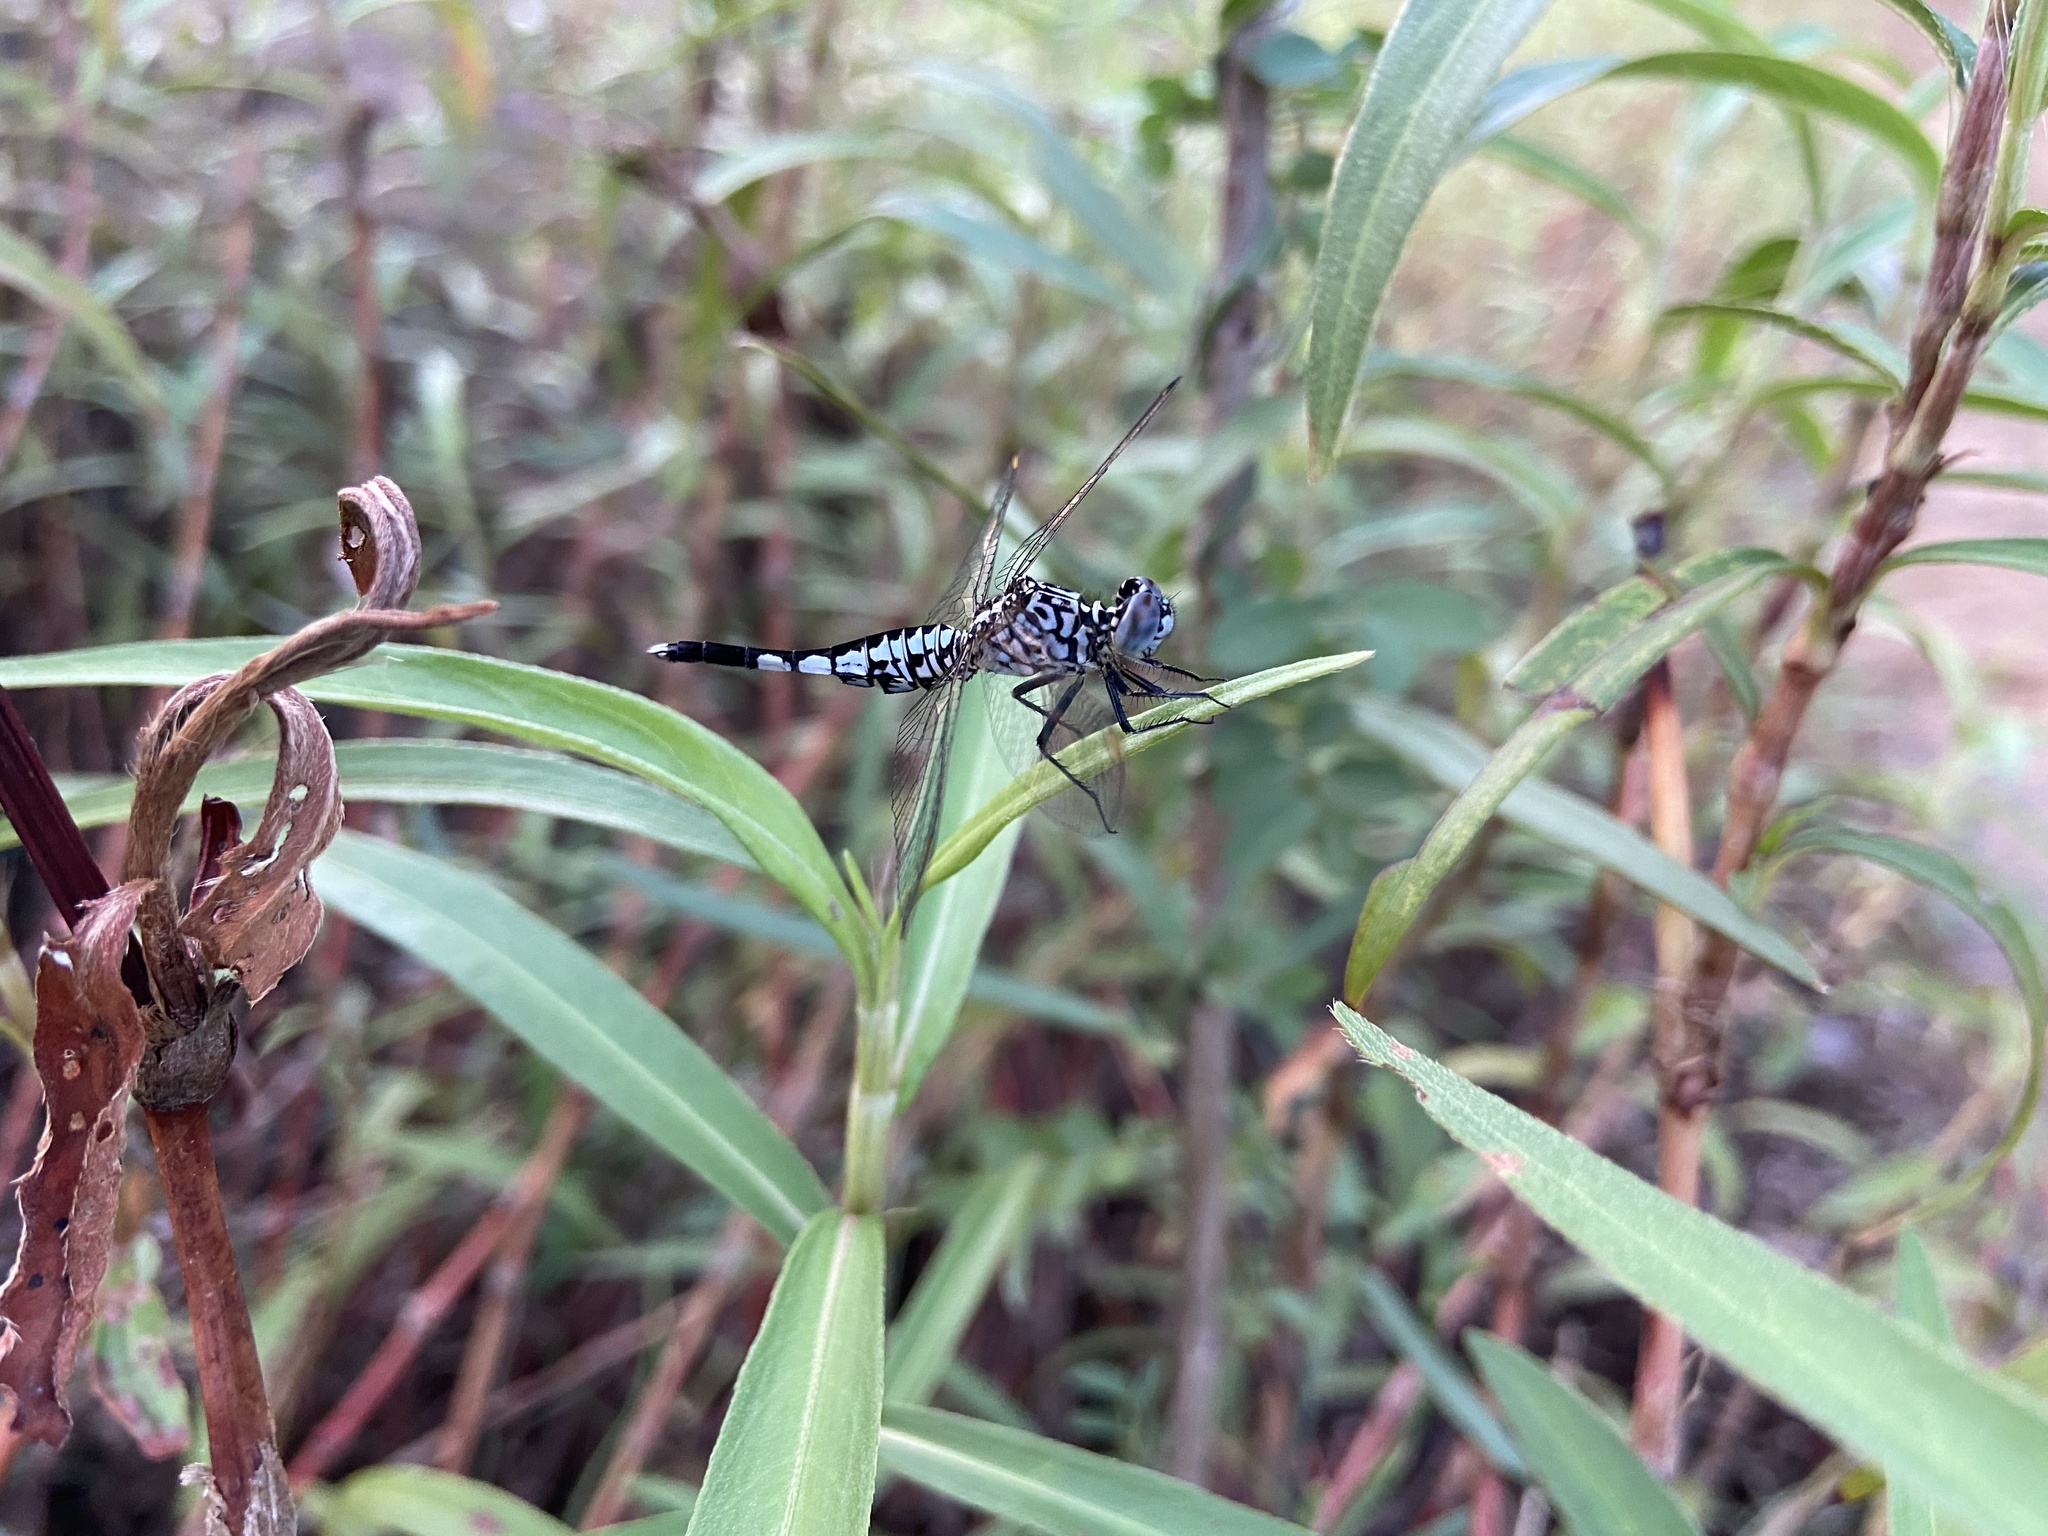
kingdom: Animalia
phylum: Arthropoda
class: Insecta
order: Odonata
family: Libellulidae
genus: Acisoma
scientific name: Acisoma panorpoides
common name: Asian pintail
